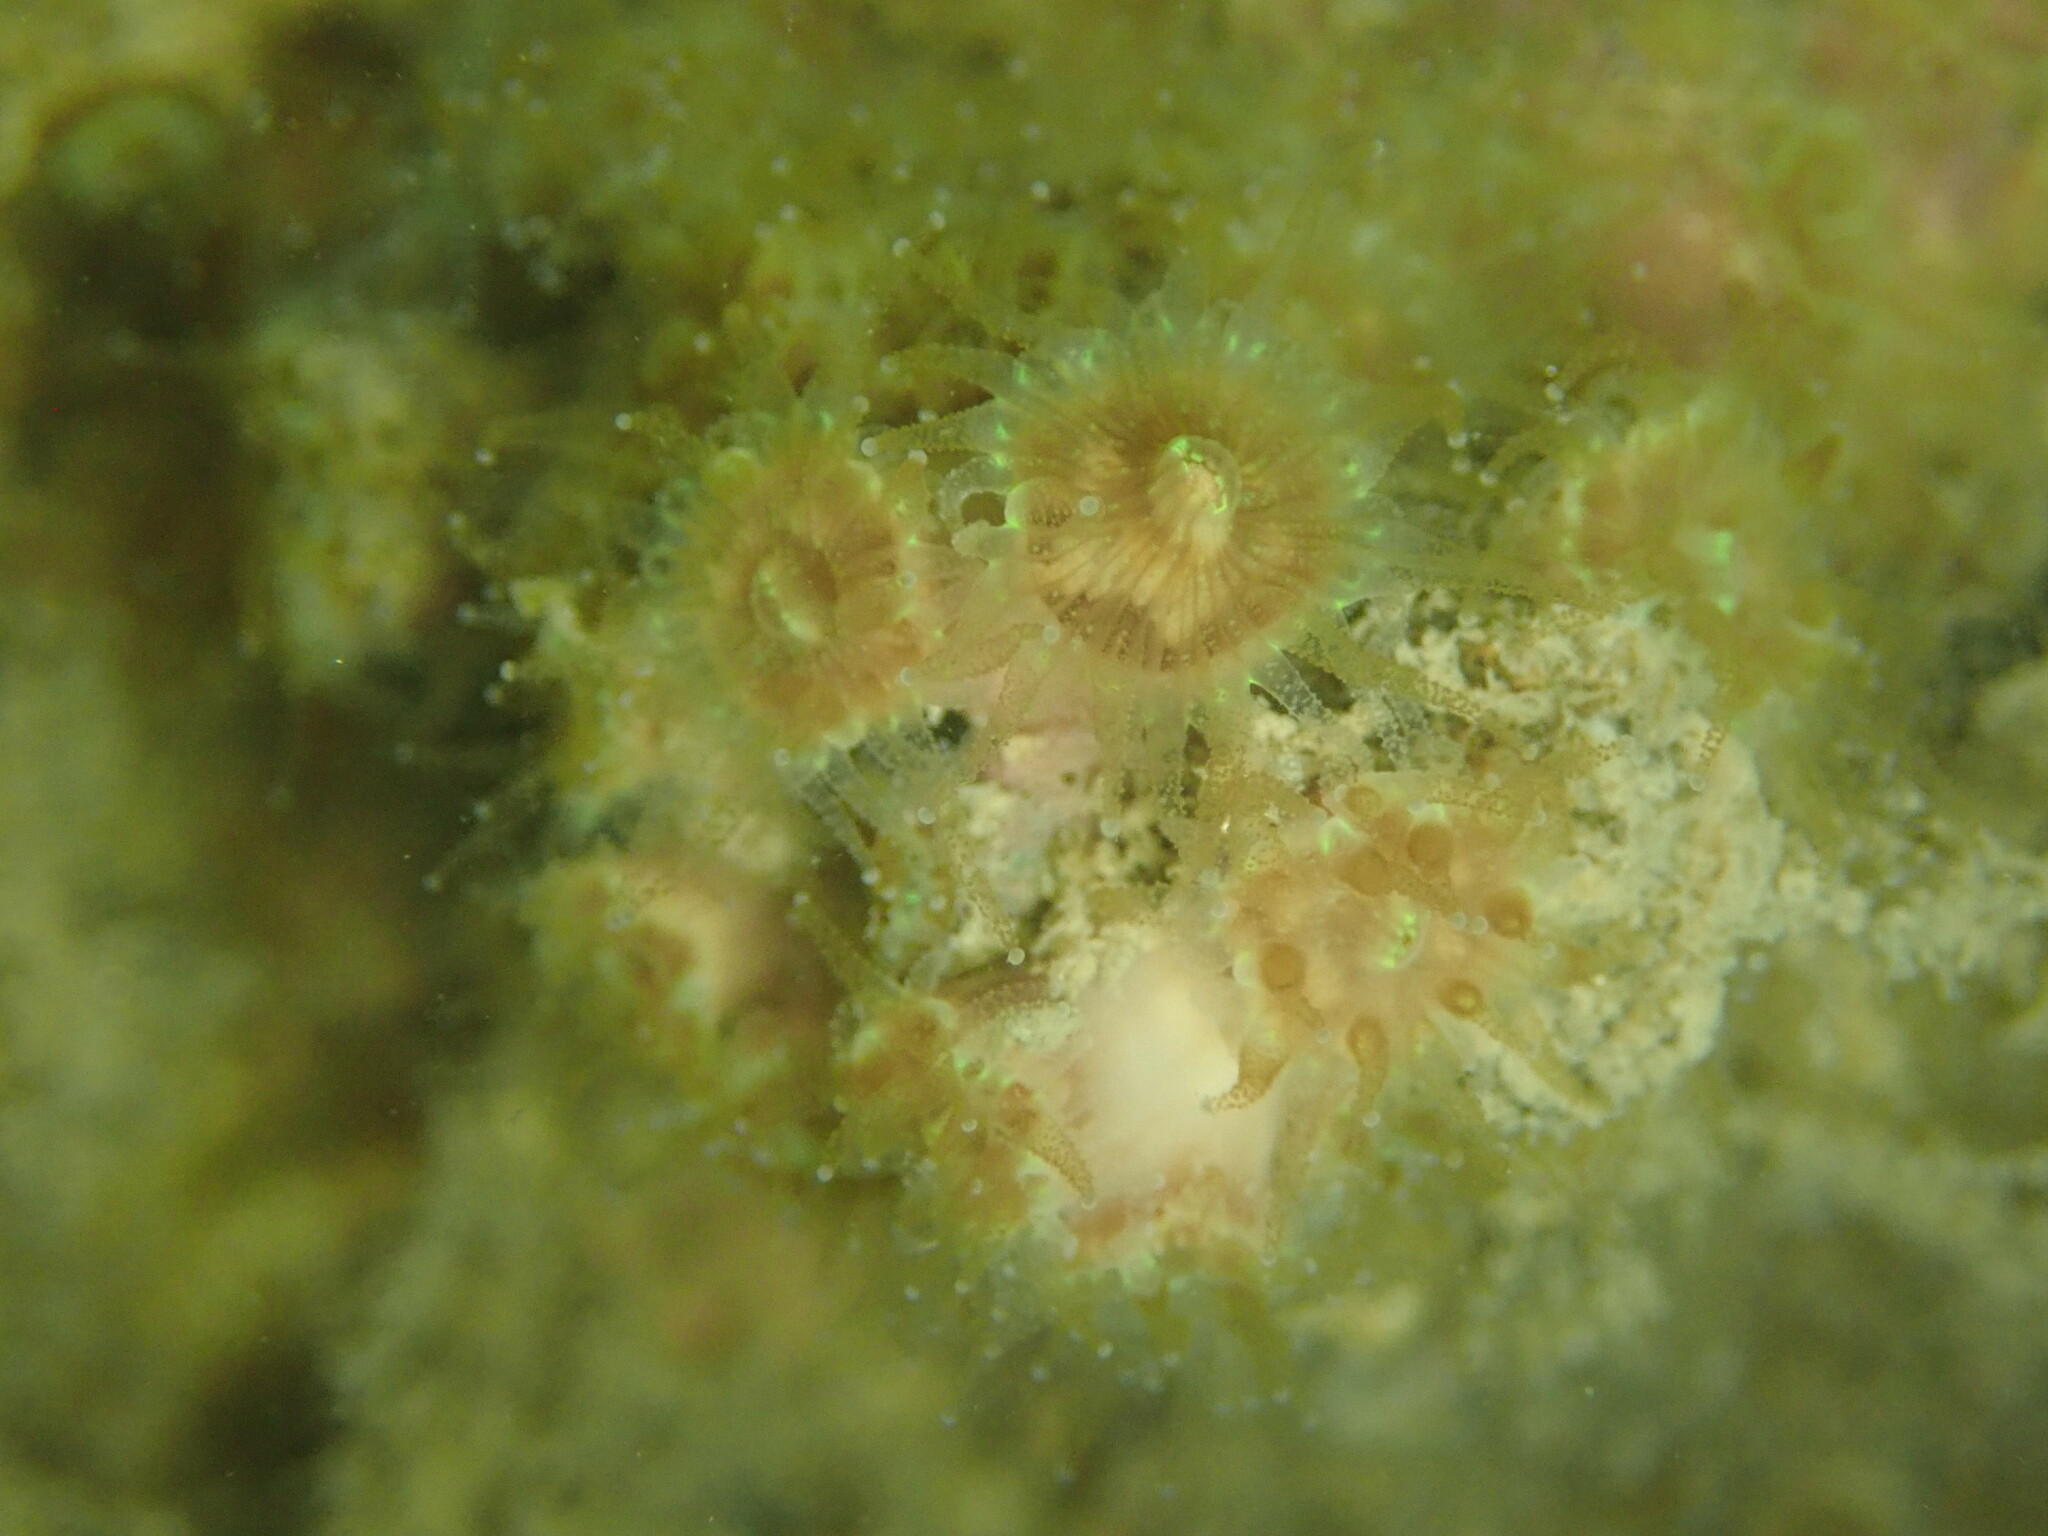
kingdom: Animalia
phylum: Cnidaria
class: Anthozoa
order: Scleractinia
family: Astrangiidae
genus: Astrangia
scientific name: Astrangia haimei
